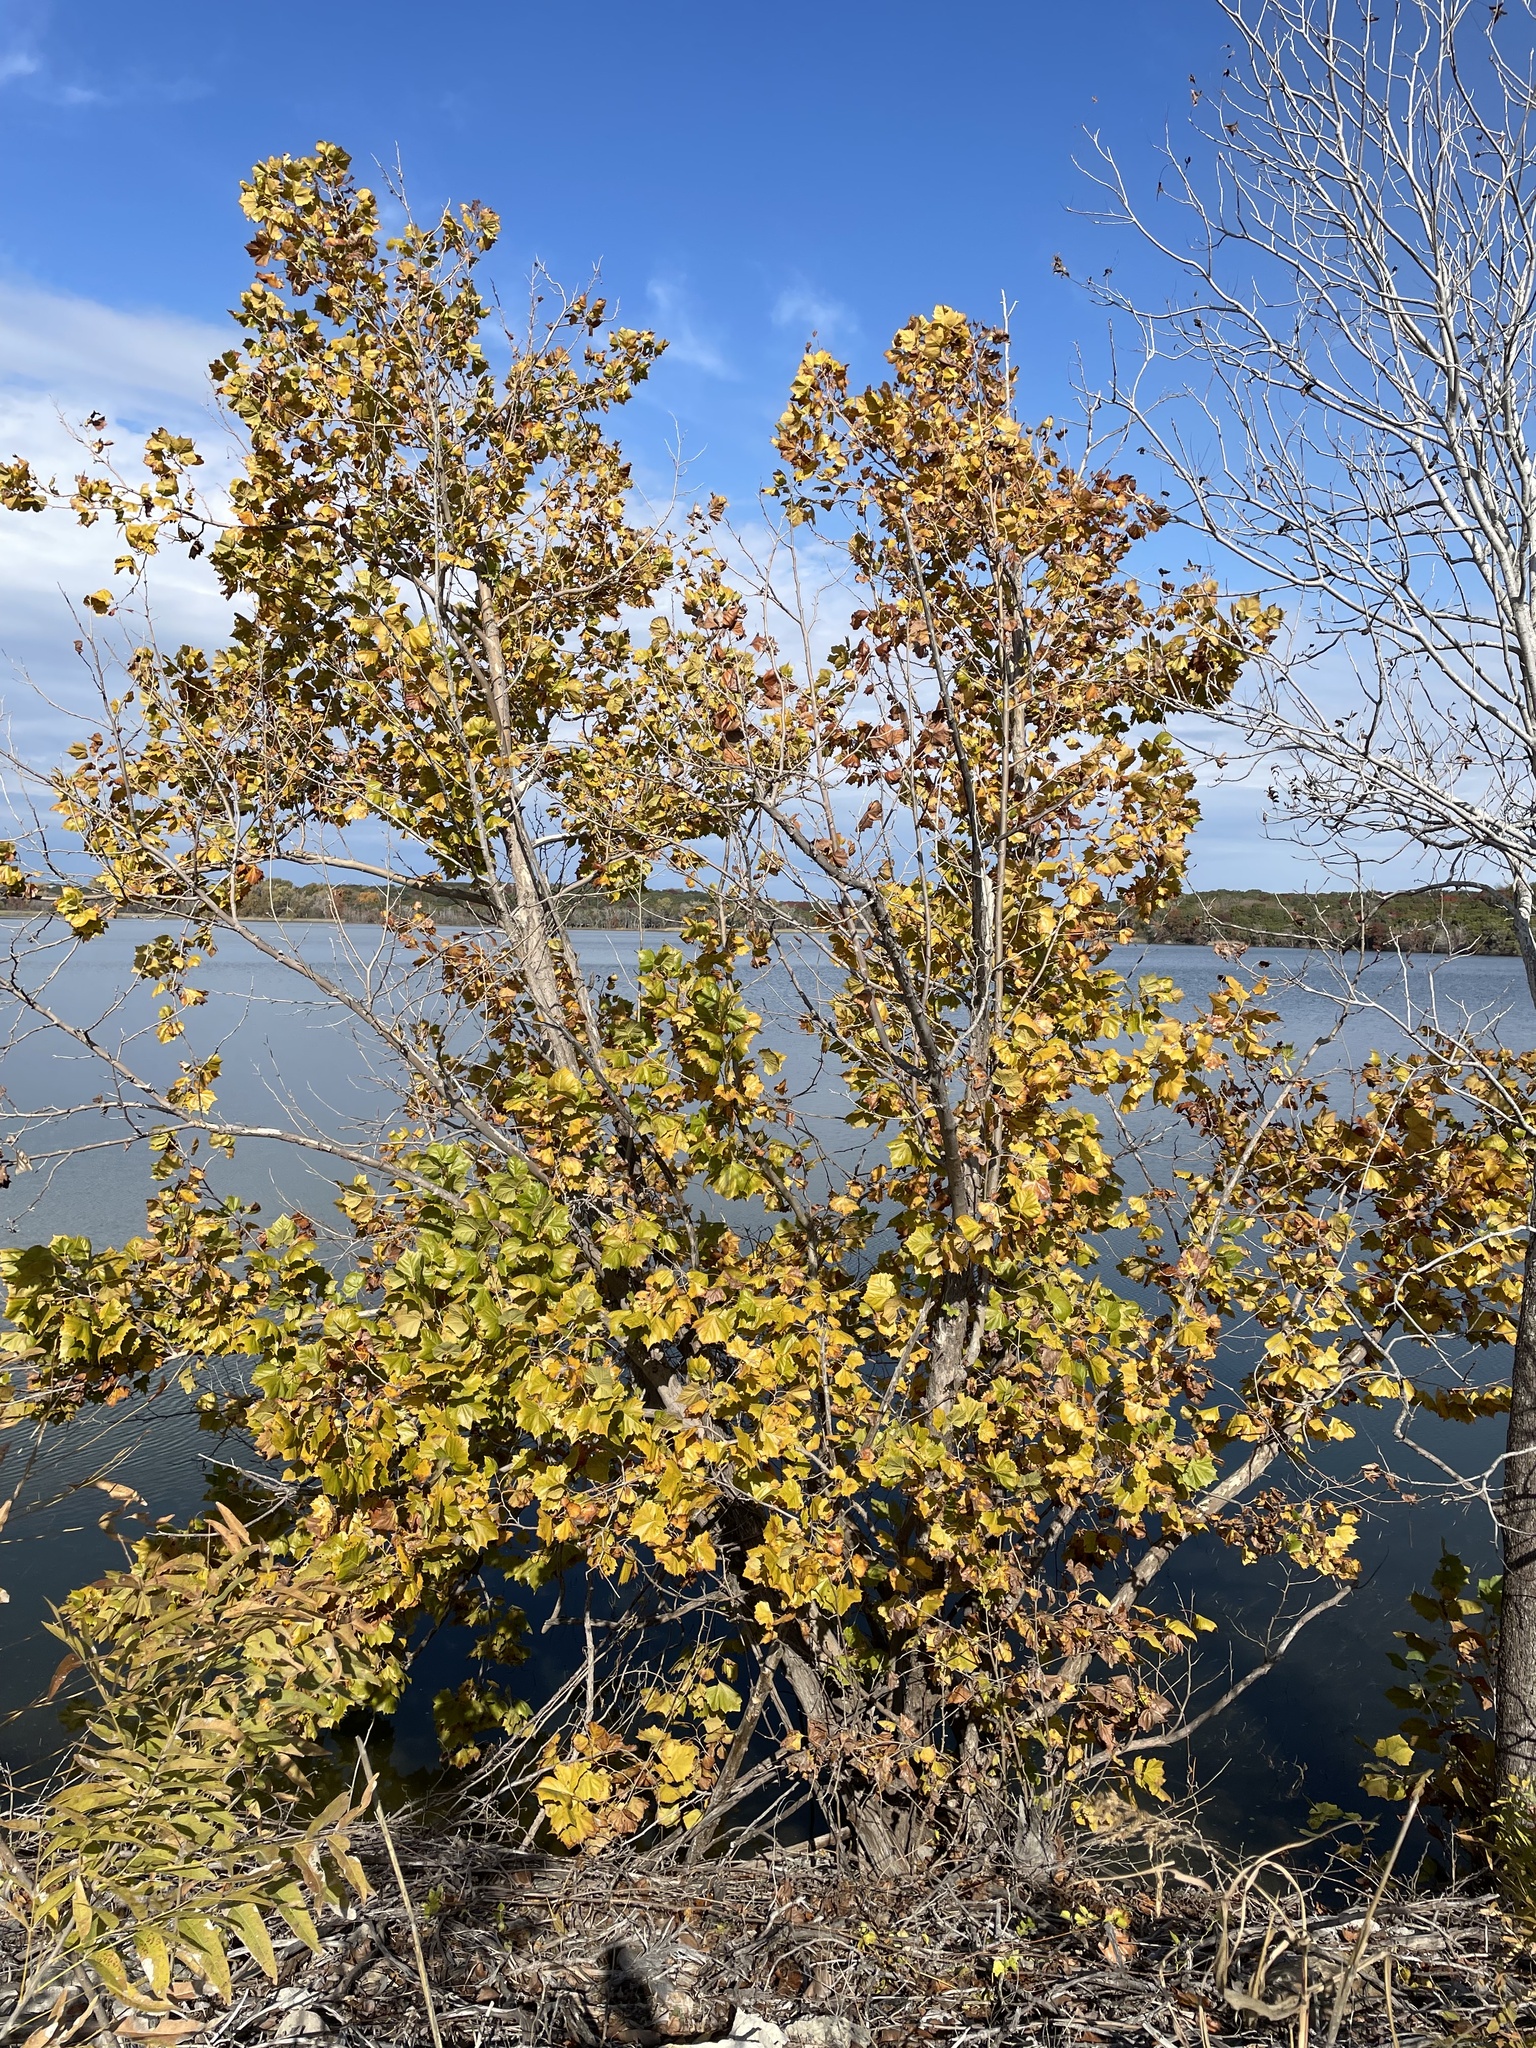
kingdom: Plantae
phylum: Tracheophyta
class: Magnoliopsida
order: Proteales
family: Platanaceae
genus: Platanus
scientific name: Platanus occidentalis
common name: American sycamore
